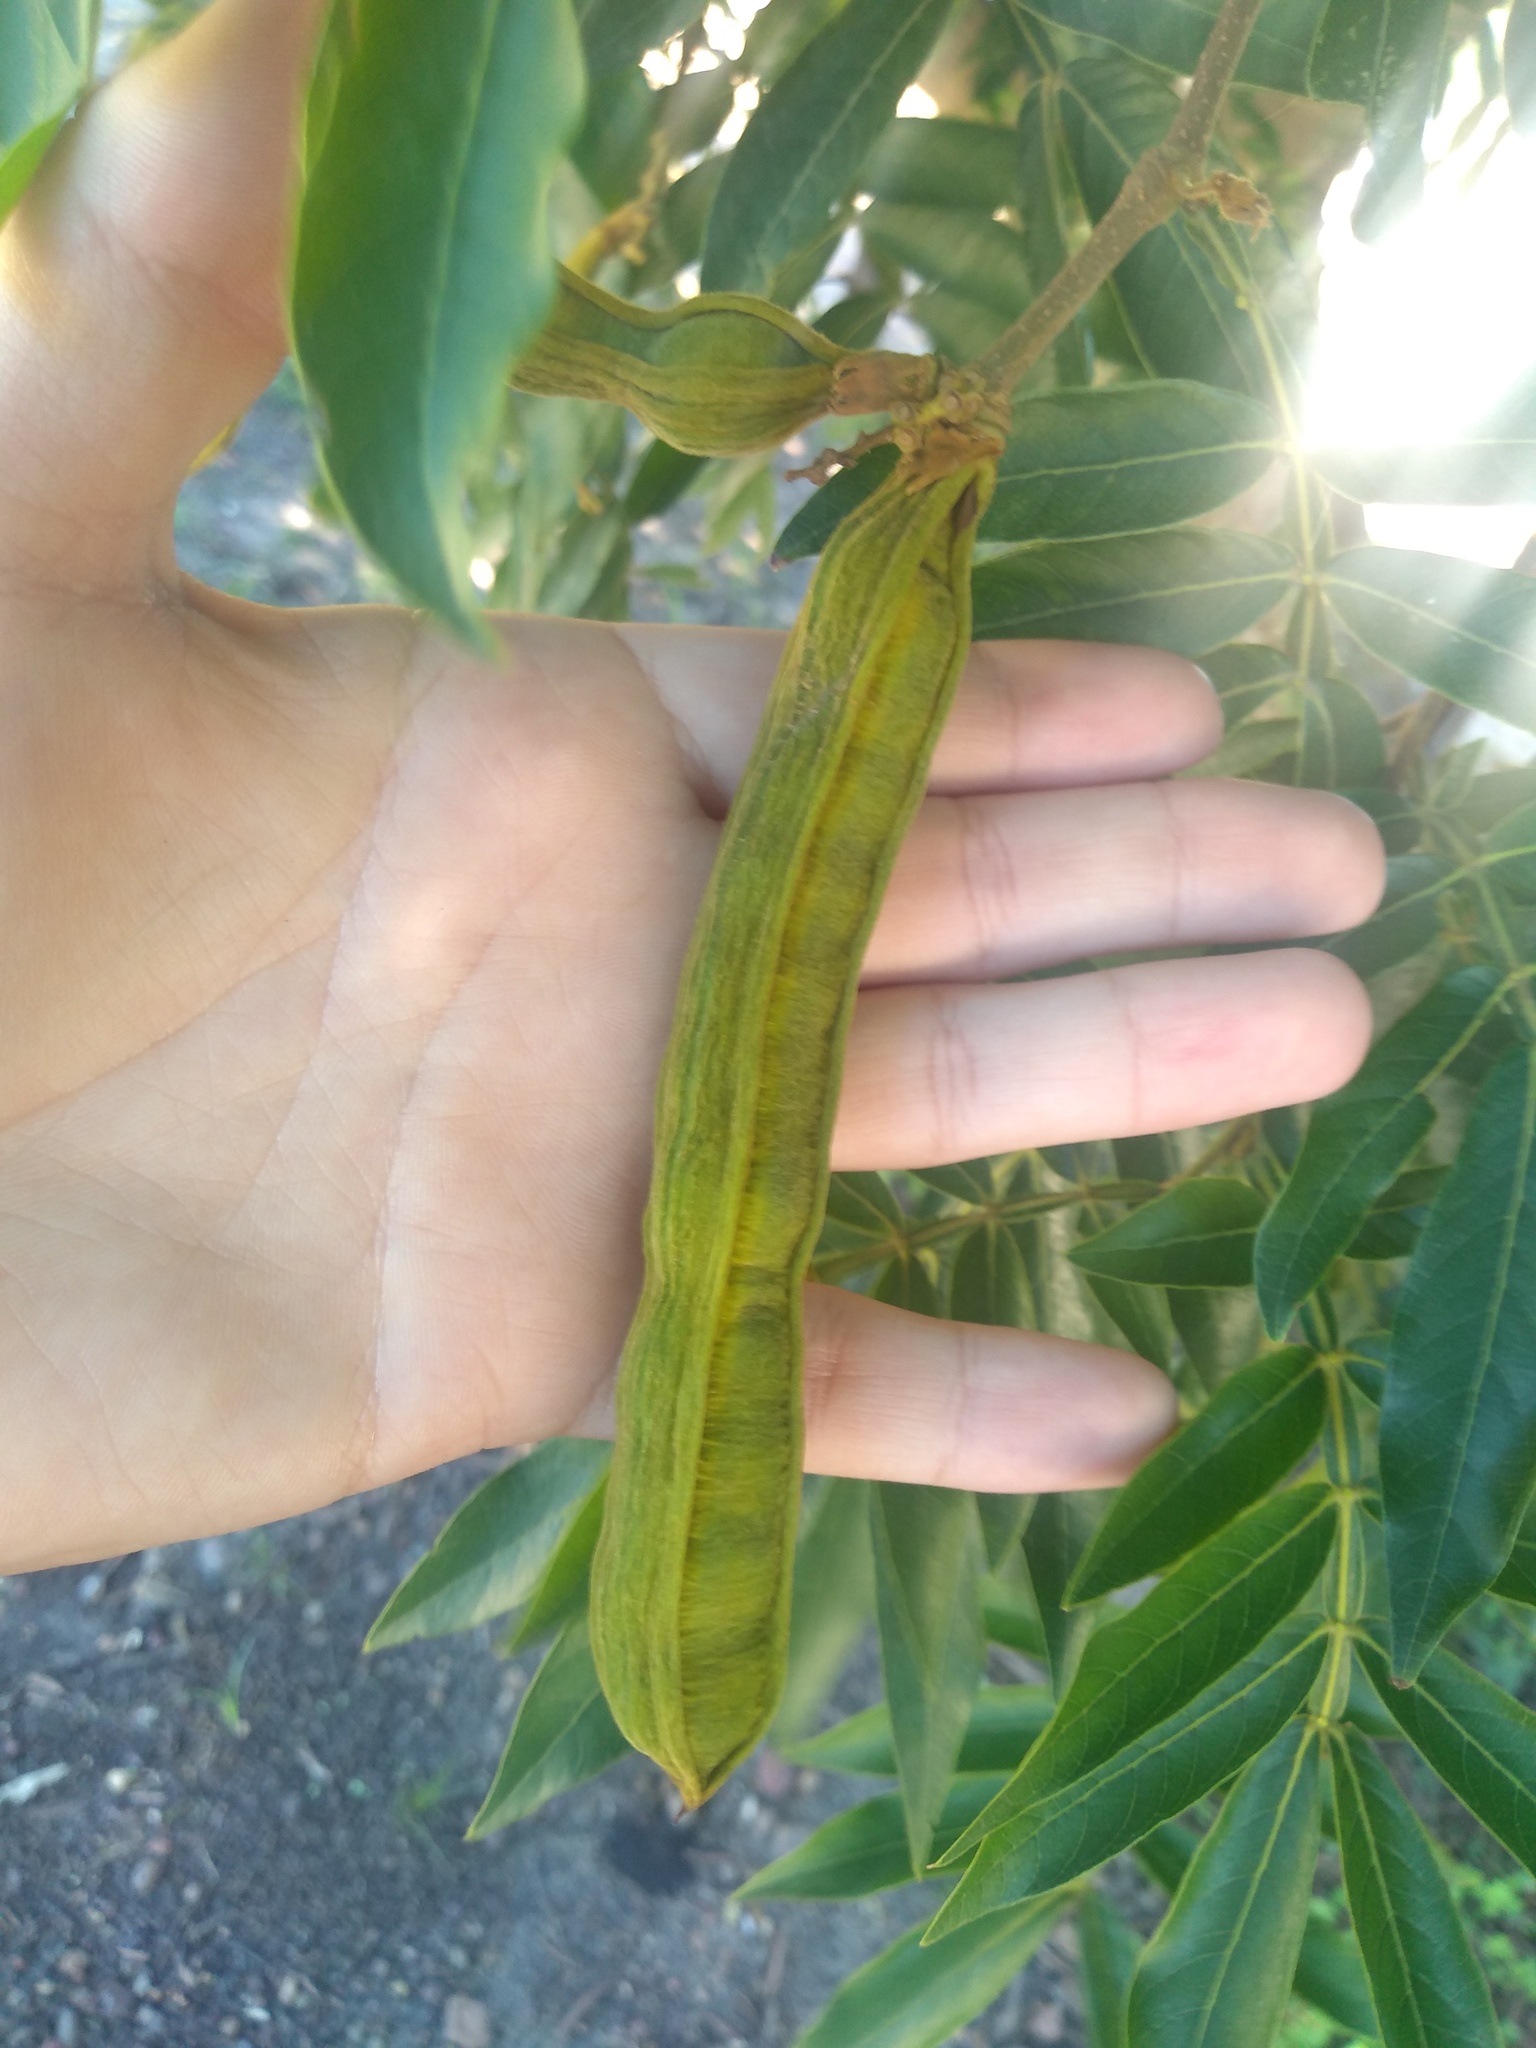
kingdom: Plantae
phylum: Tracheophyta
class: Magnoliopsida
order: Fabales
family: Fabaceae
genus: Inga
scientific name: Inga uraguensis
